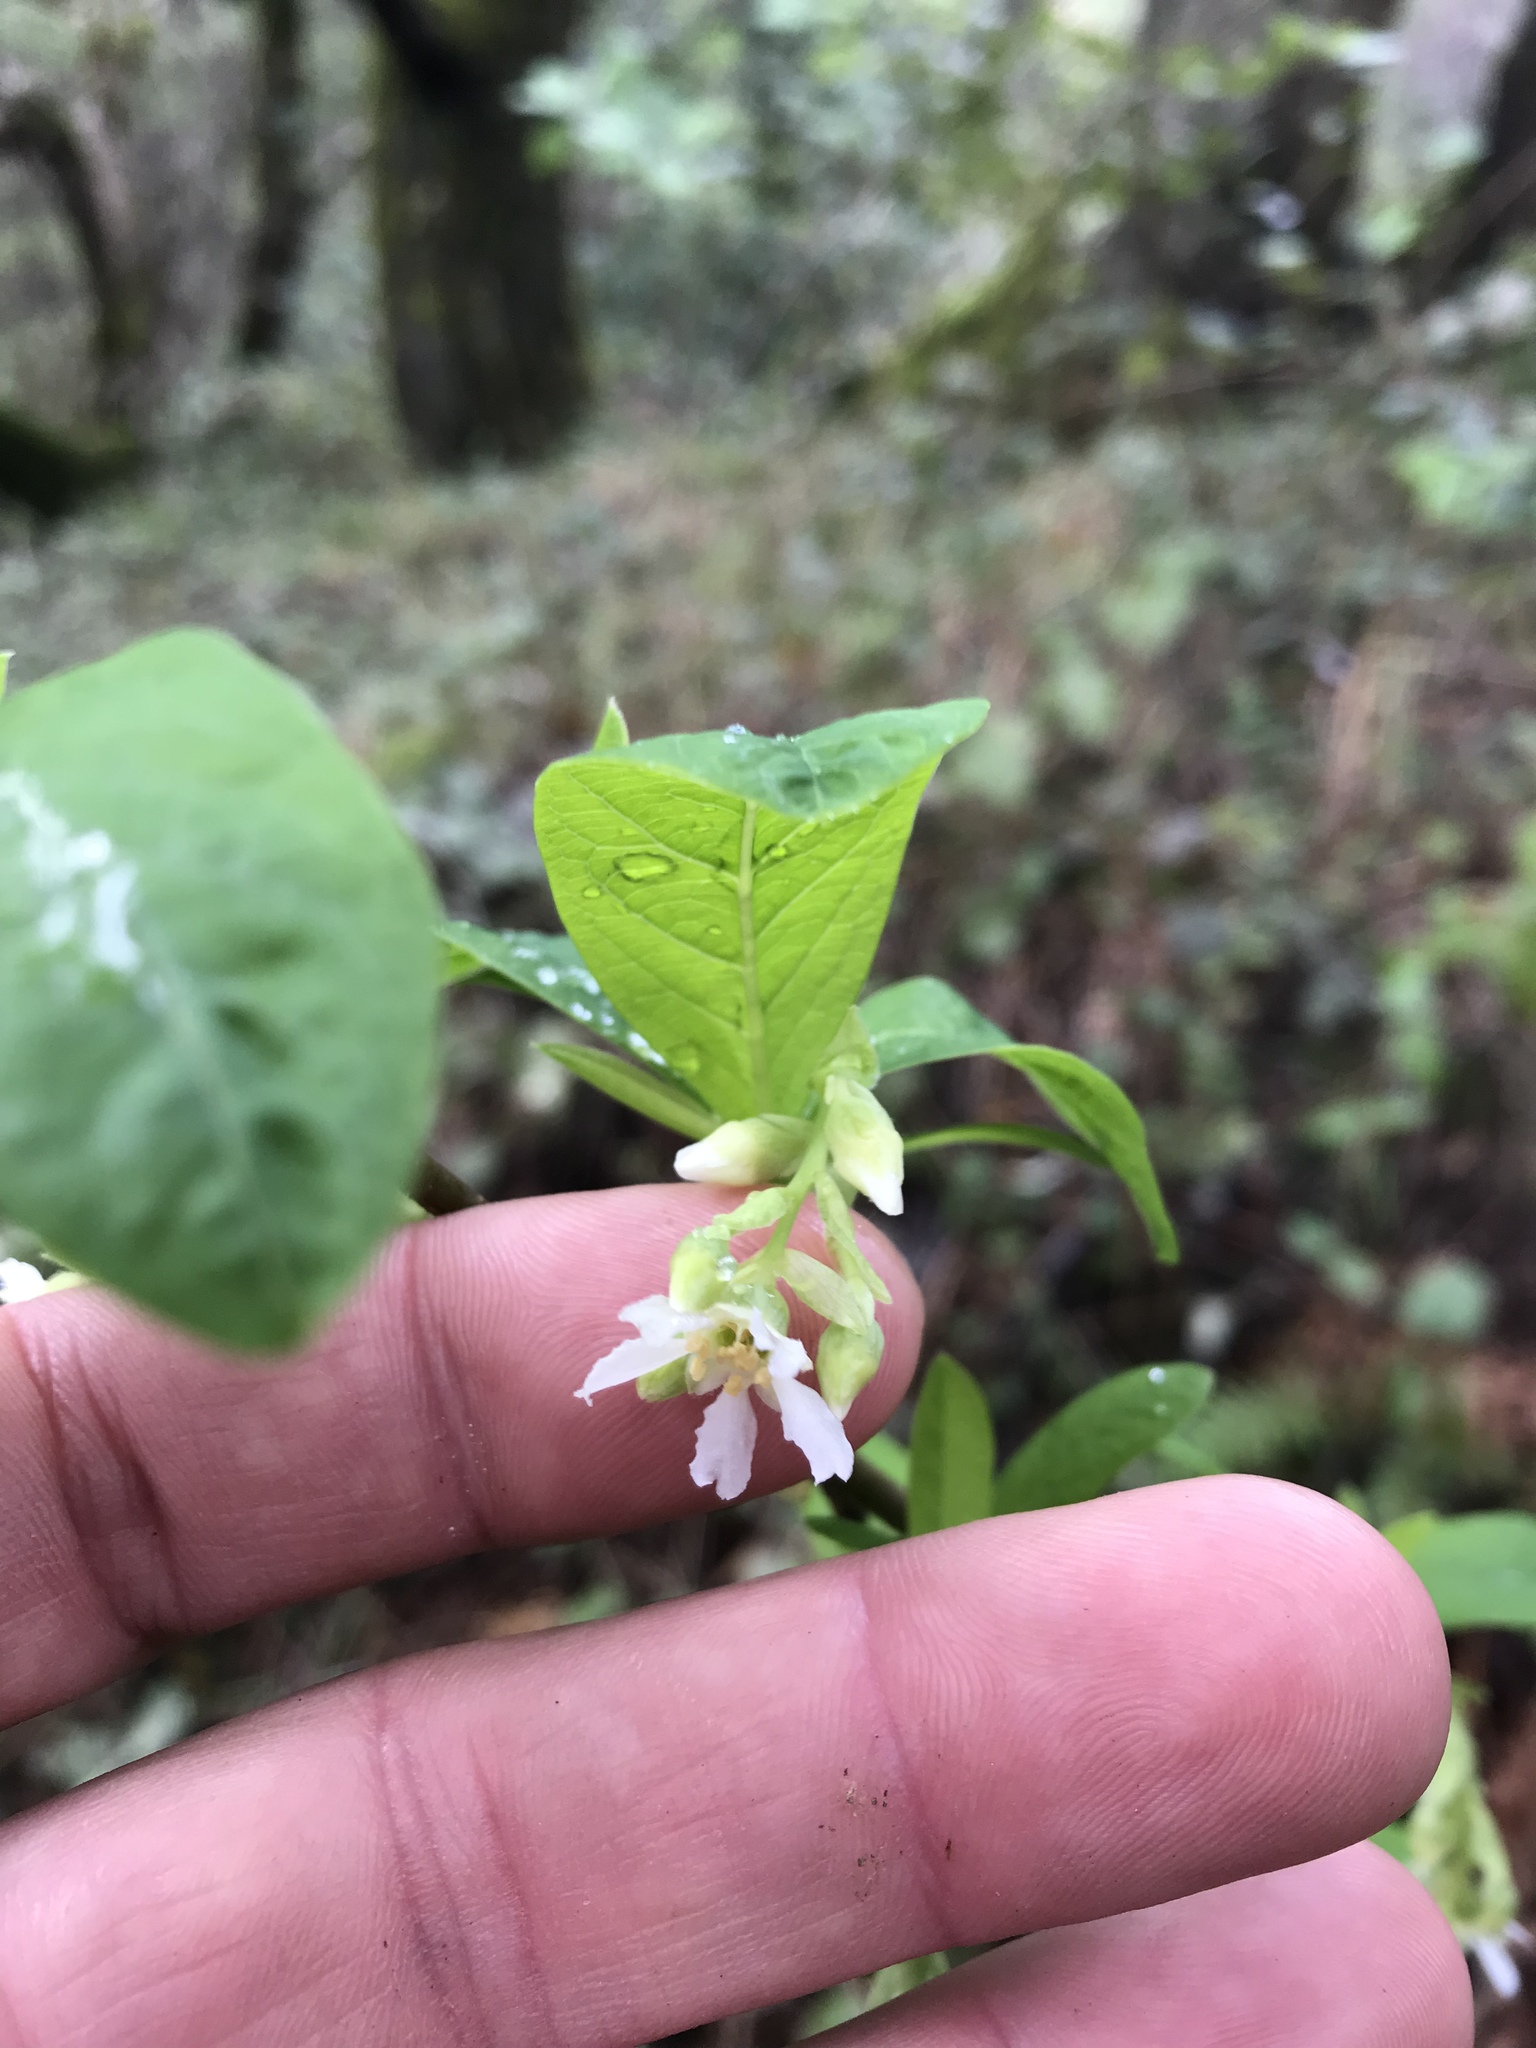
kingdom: Plantae
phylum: Tracheophyta
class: Magnoliopsida
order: Rosales
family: Rosaceae
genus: Oemleria
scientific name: Oemleria cerasiformis
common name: Osoberry
